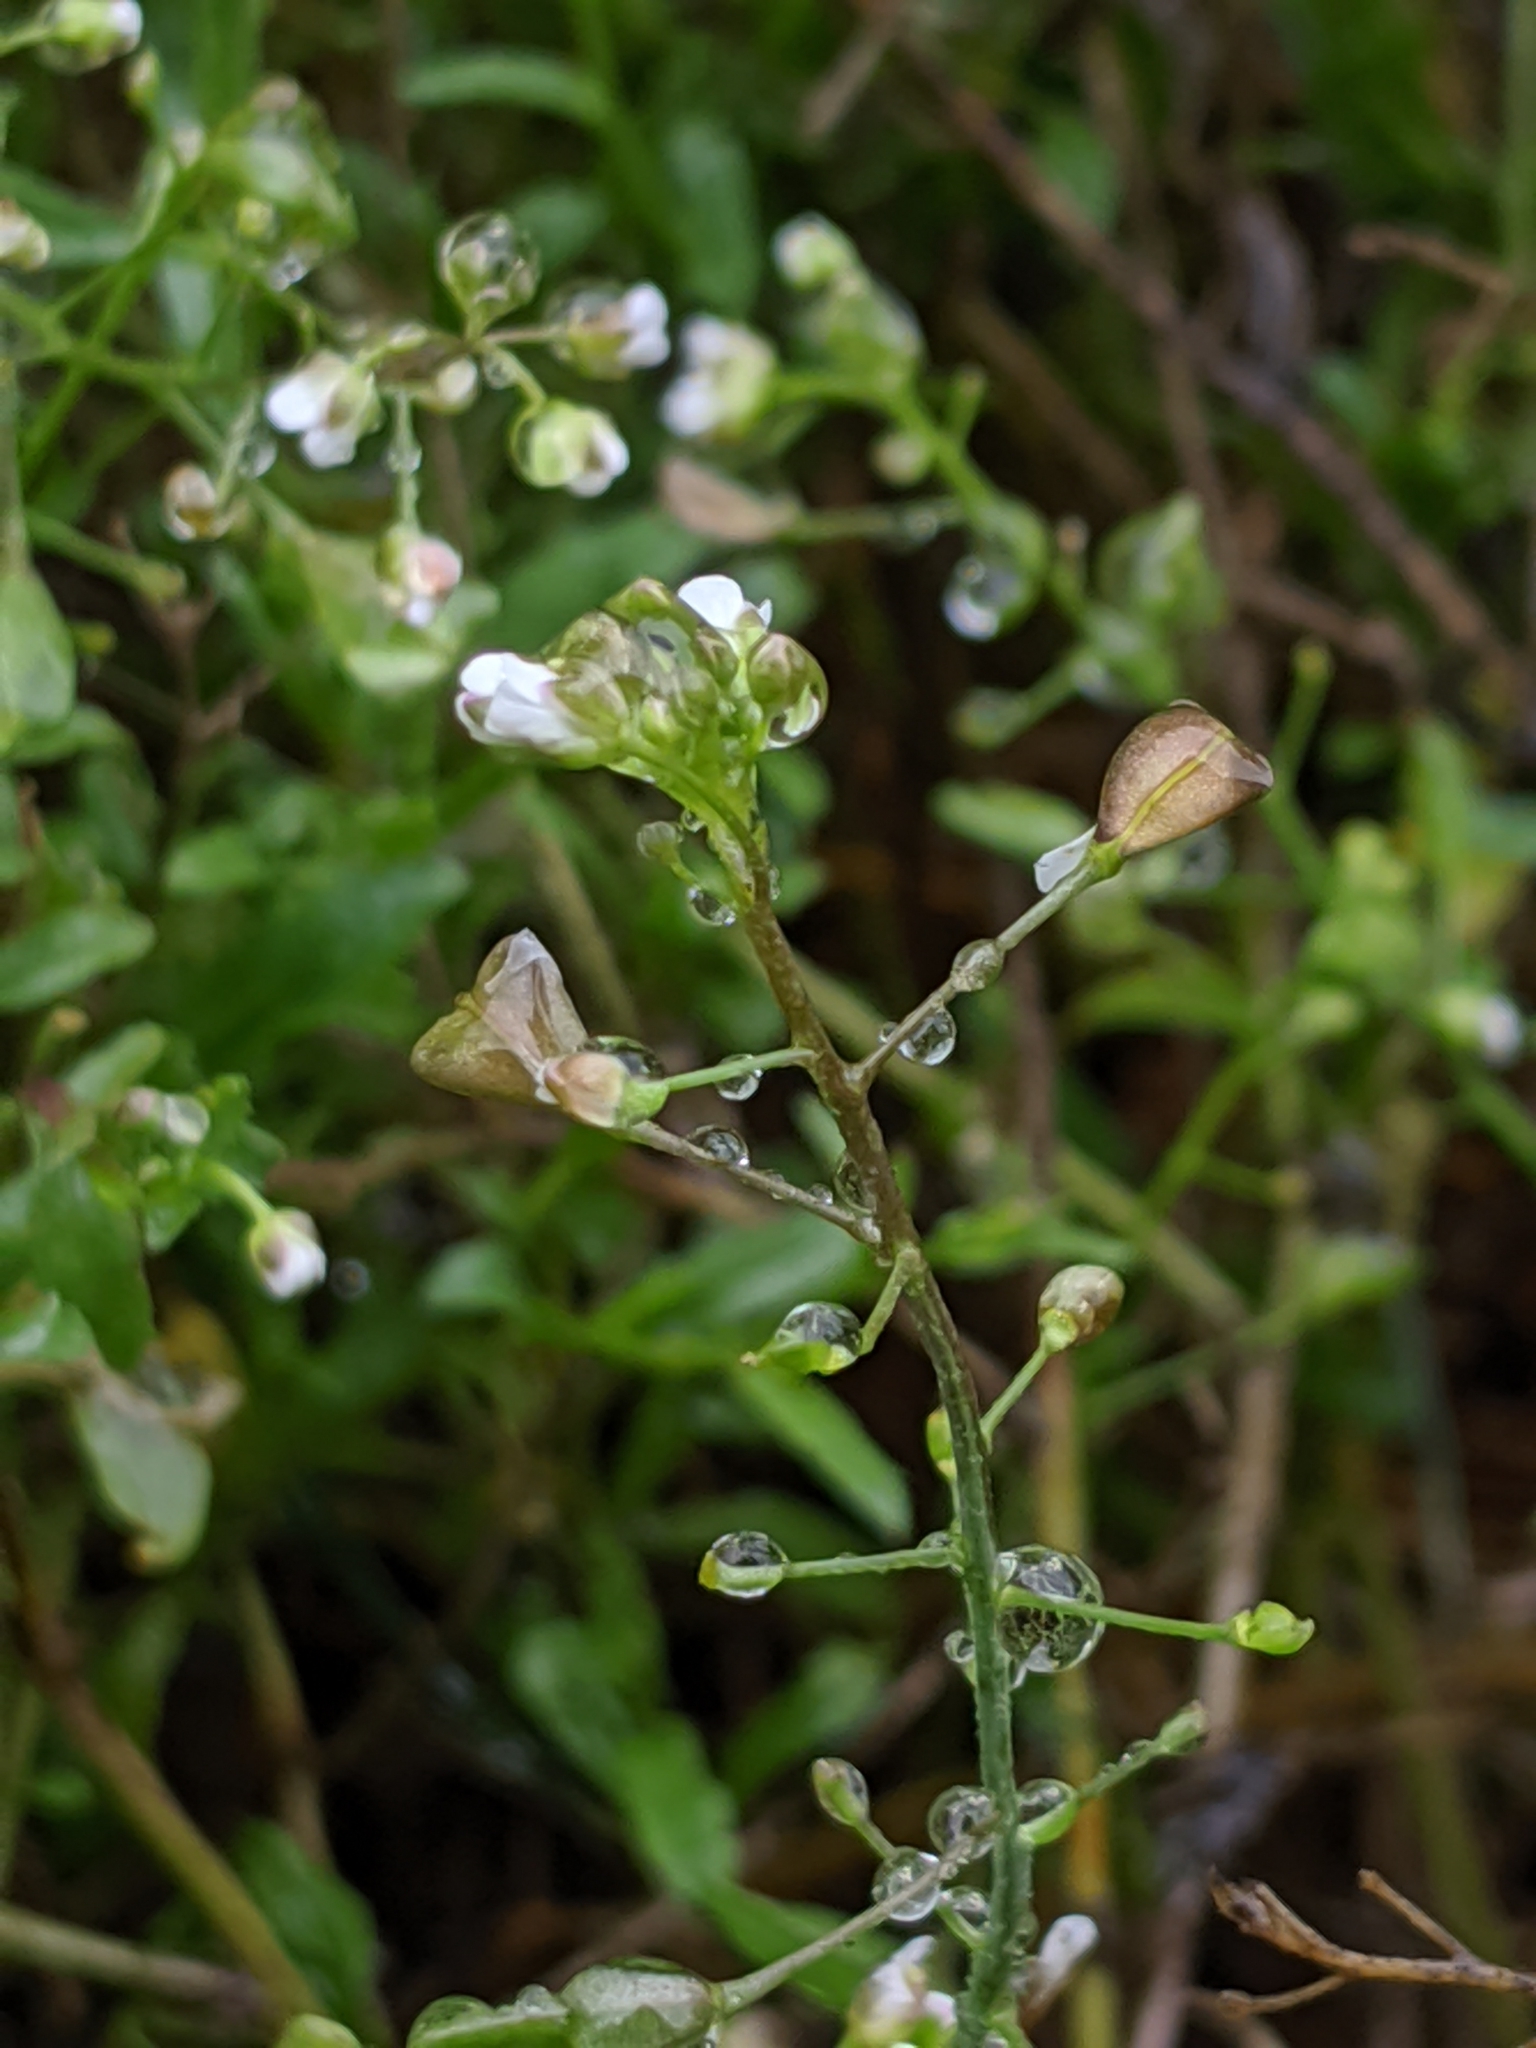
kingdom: Plantae
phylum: Tracheophyta
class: Magnoliopsida
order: Brassicales
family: Brassicaceae
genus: Capsella
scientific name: Capsella bursa-pastoris
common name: Shepherd's purse
